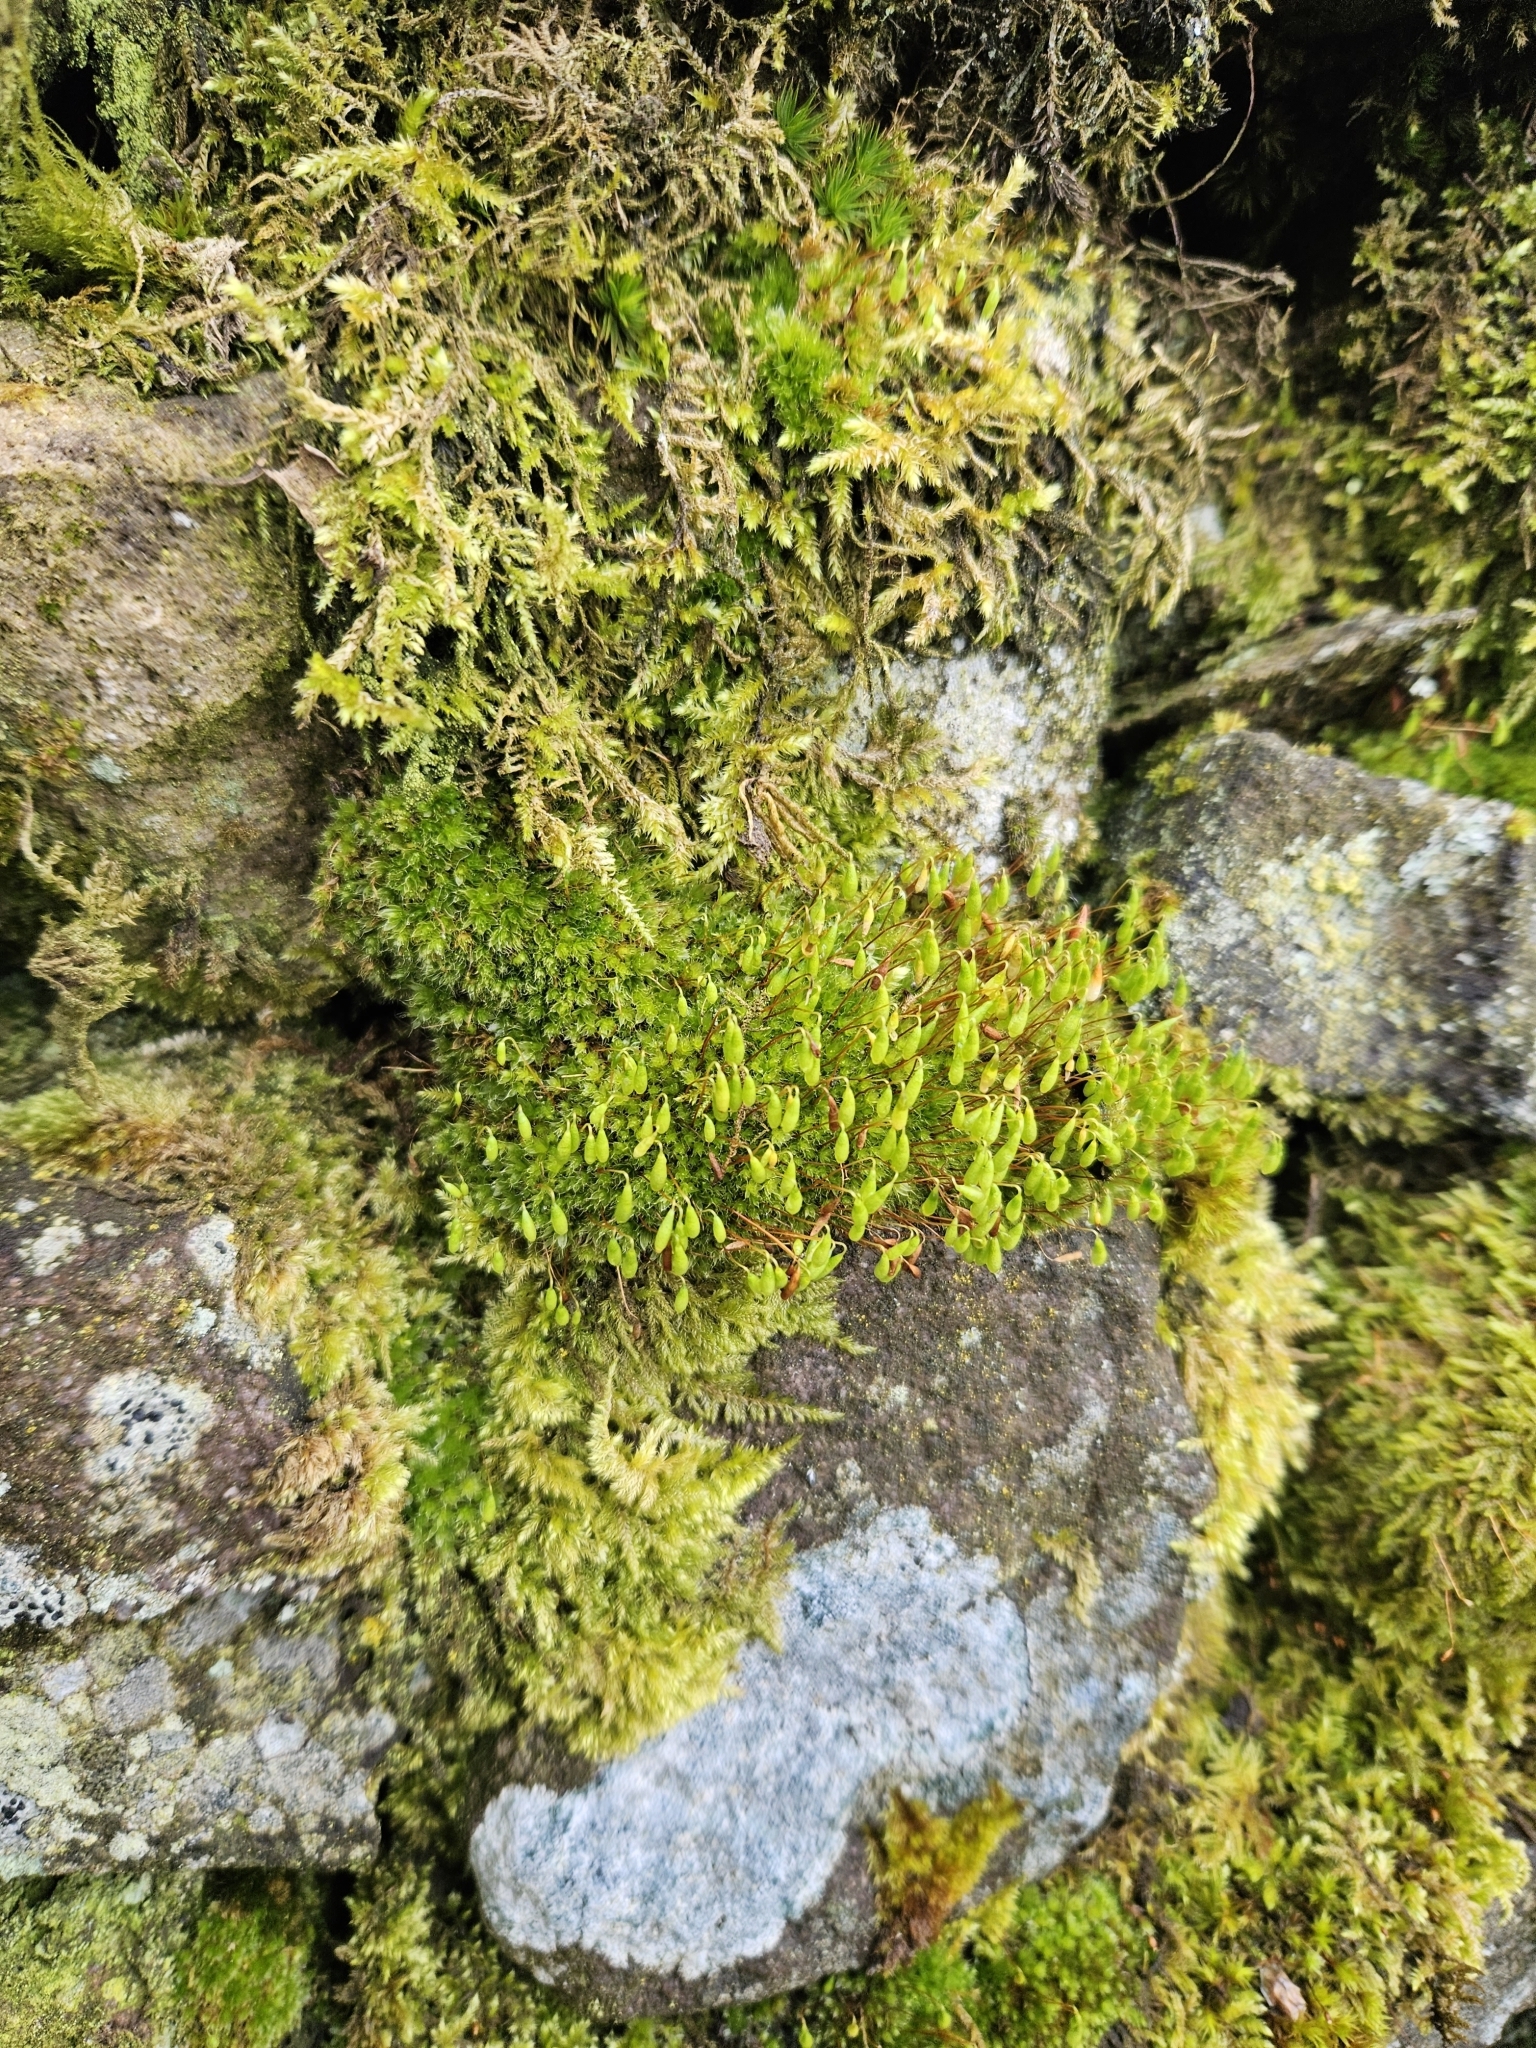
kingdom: Plantae
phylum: Bryophyta
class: Bryopsida
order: Bryales
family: Bryaceae
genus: Rosulabryum
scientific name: Rosulabryum capillare
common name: Capillary thread-moss
